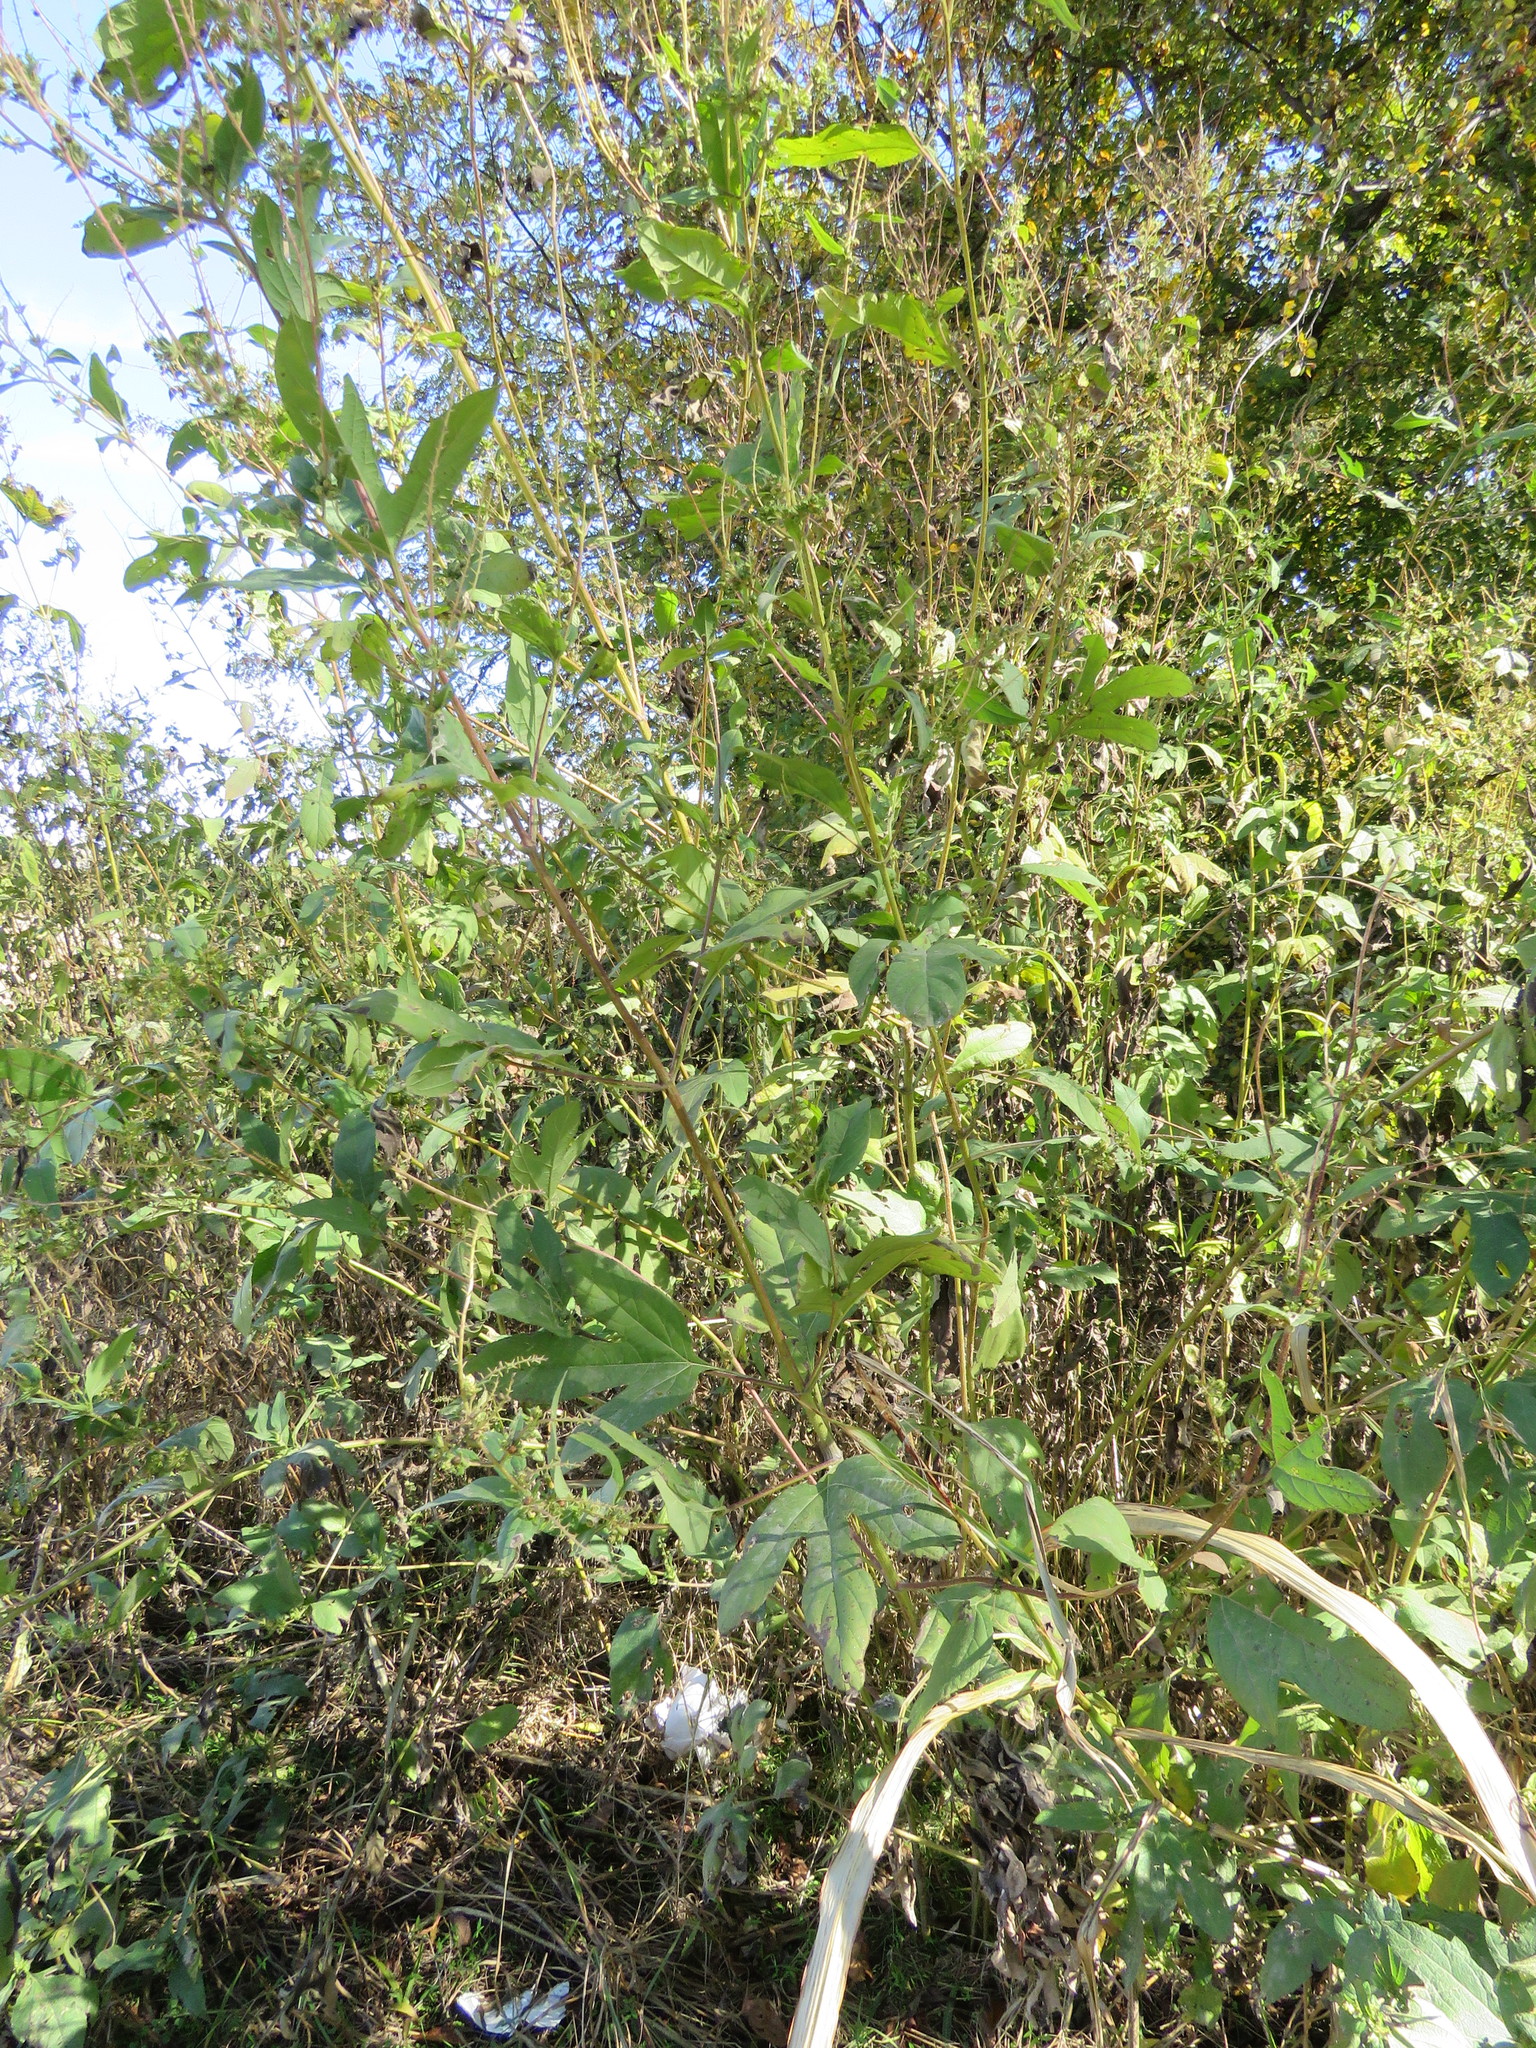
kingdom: Plantae
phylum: Tracheophyta
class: Magnoliopsida
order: Asterales
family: Asteraceae
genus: Ambrosia
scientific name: Ambrosia trifida
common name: Giant ragweed
